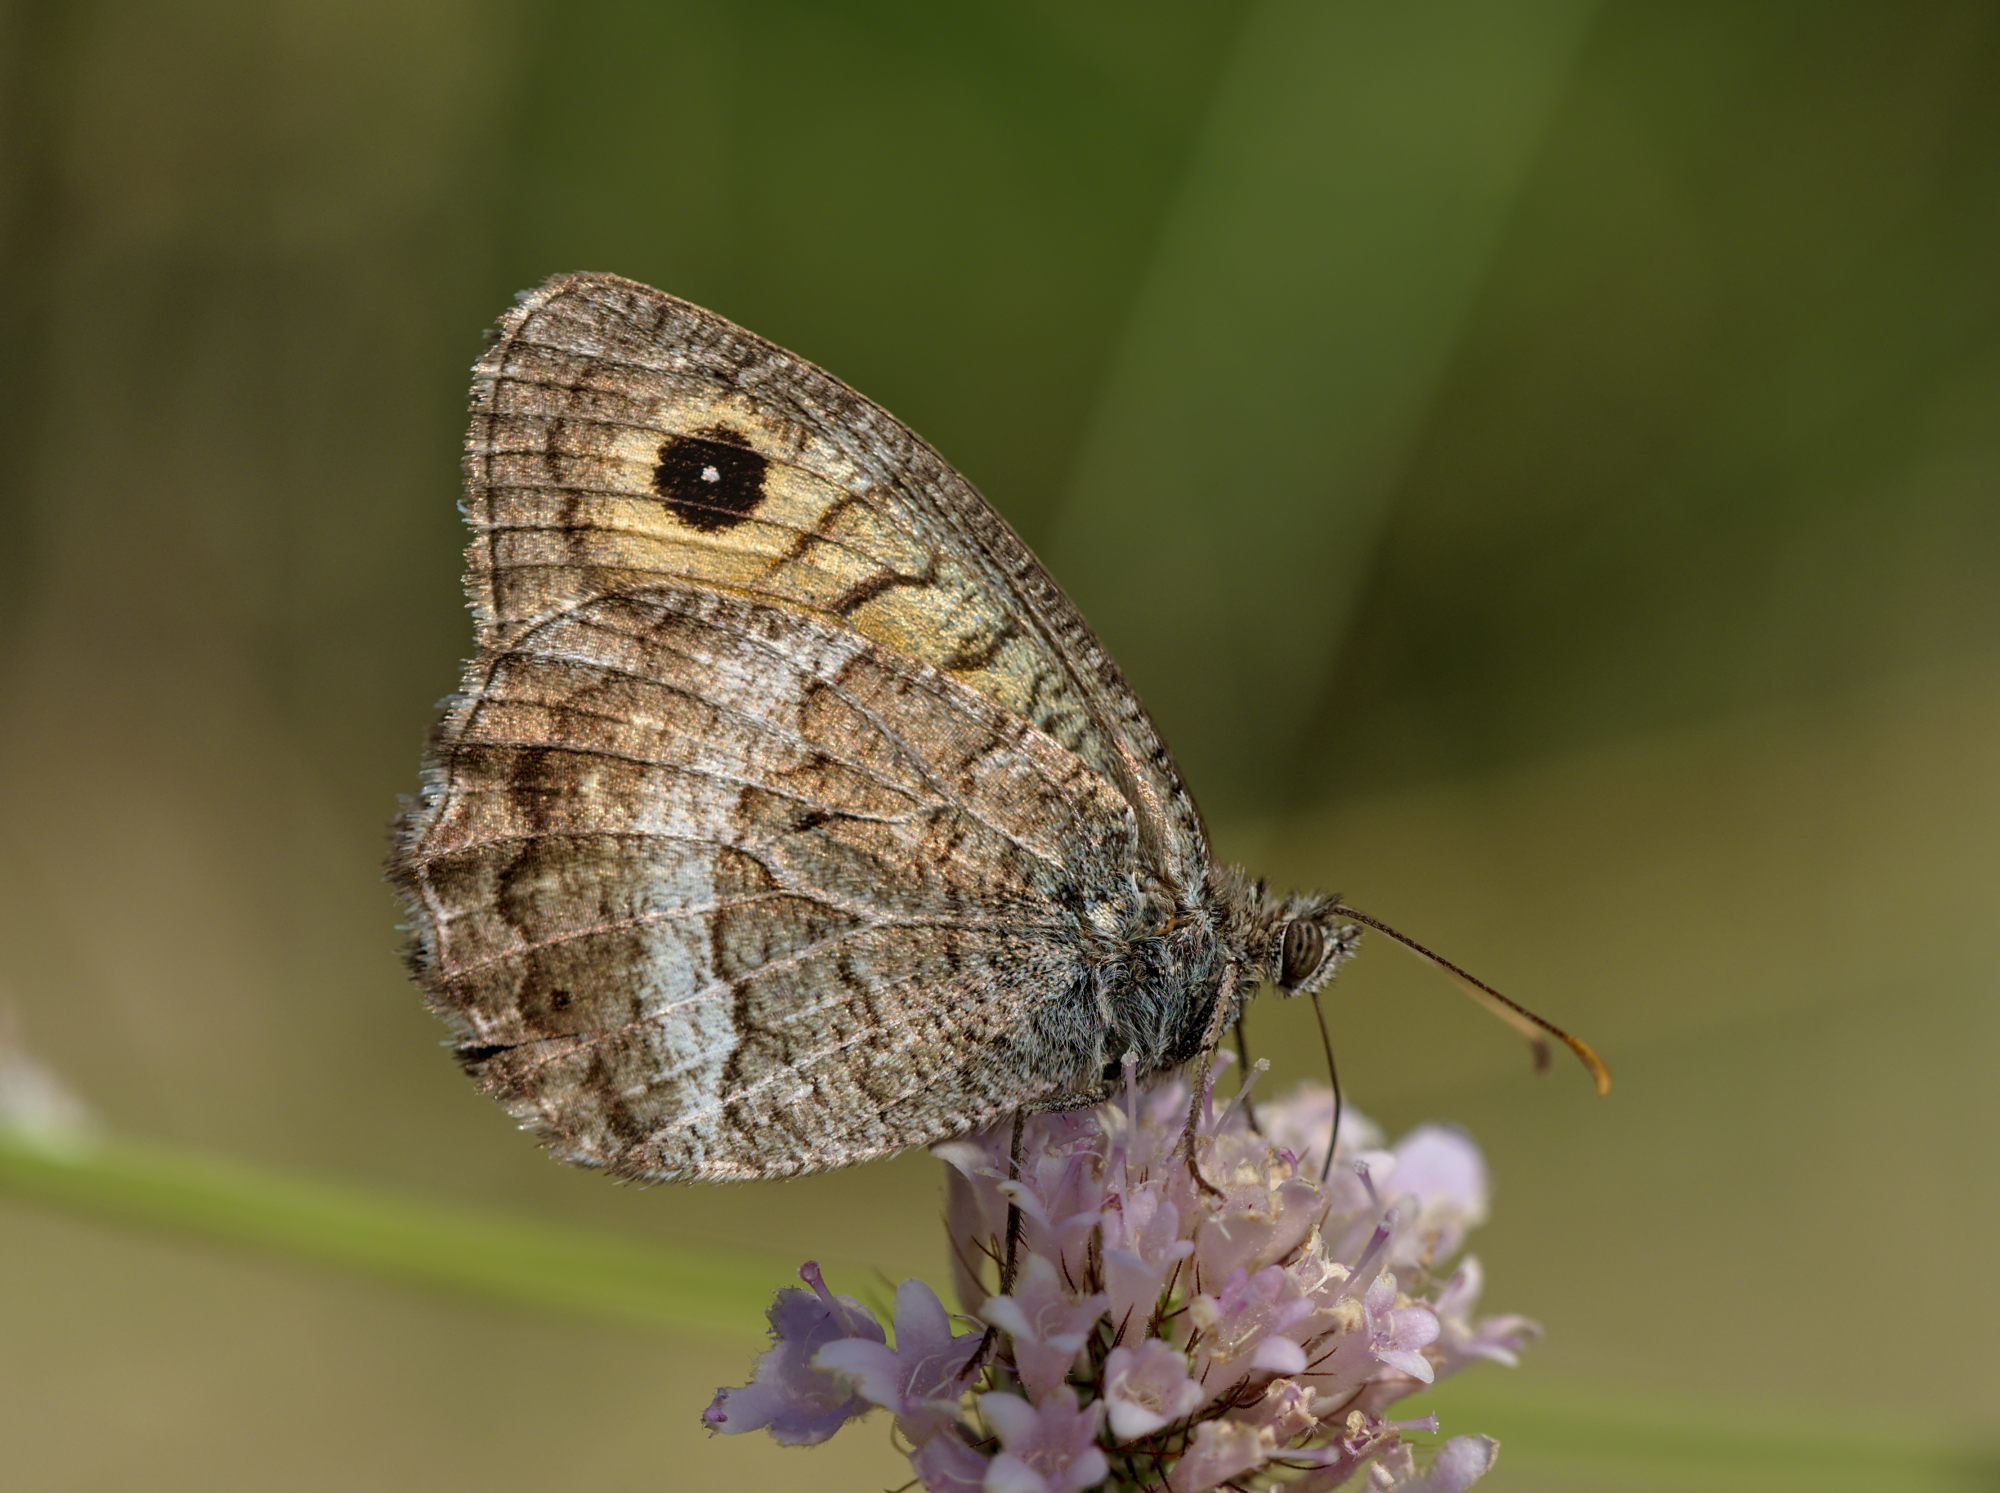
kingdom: Animalia
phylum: Arthropoda
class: Insecta
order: Lepidoptera
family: Nymphalidae
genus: Arethusana
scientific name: Arethusana arethusa
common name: False grayling
